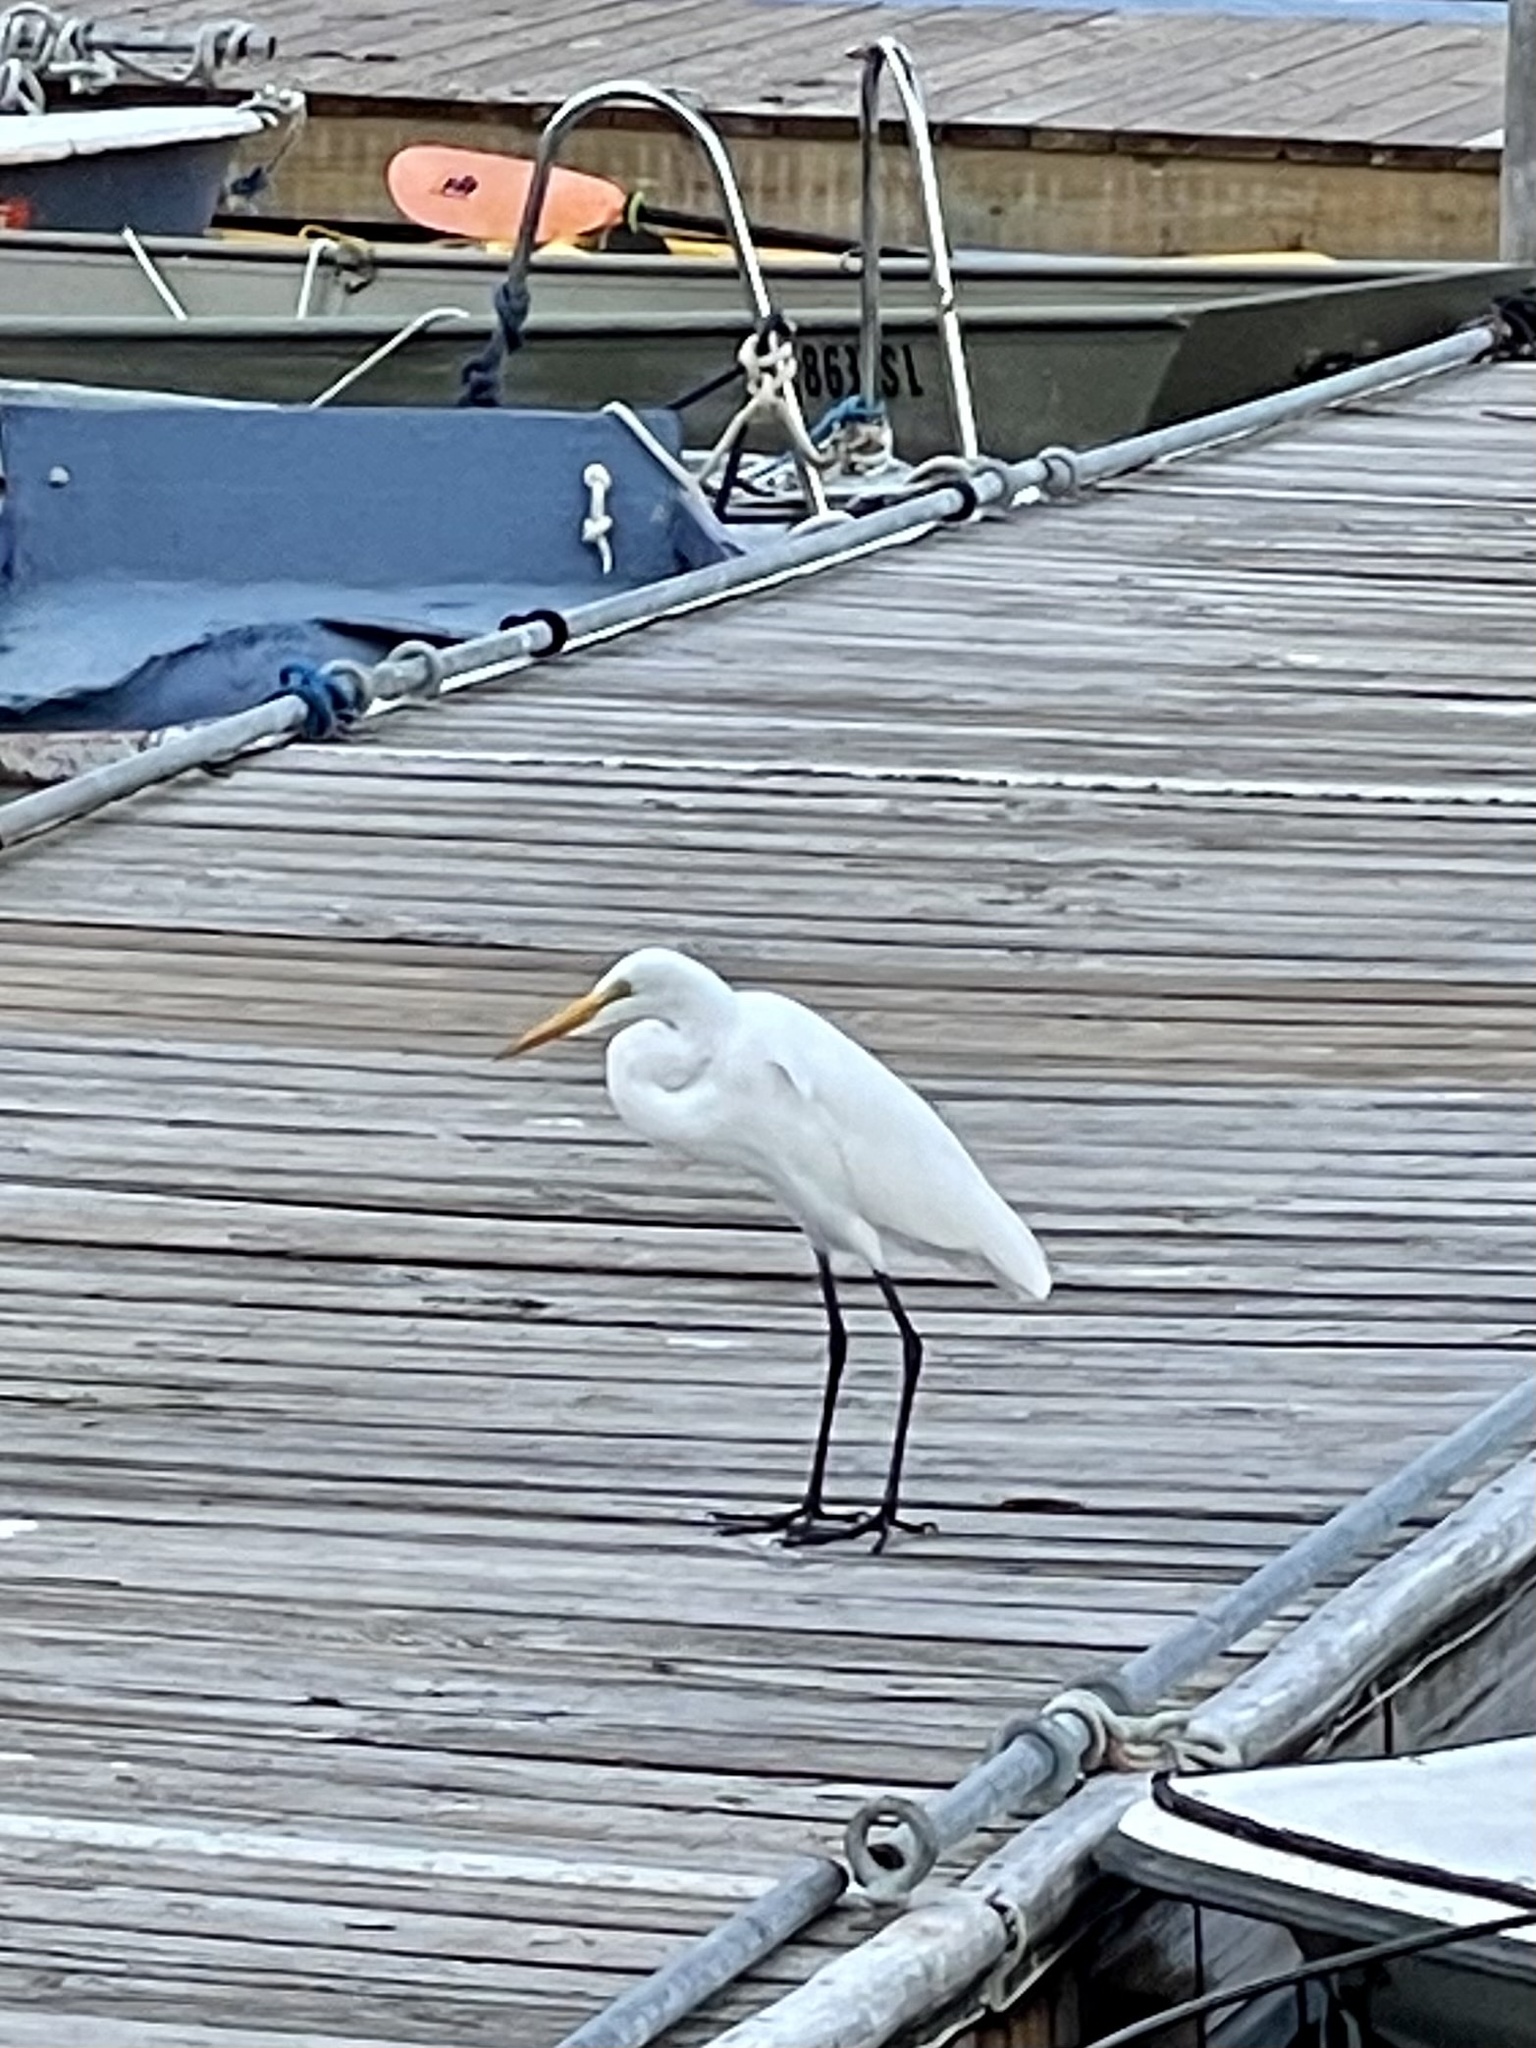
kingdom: Animalia
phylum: Chordata
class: Aves
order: Pelecaniformes
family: Ardeidae
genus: Ardea
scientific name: Ardea alba
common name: Great egret
